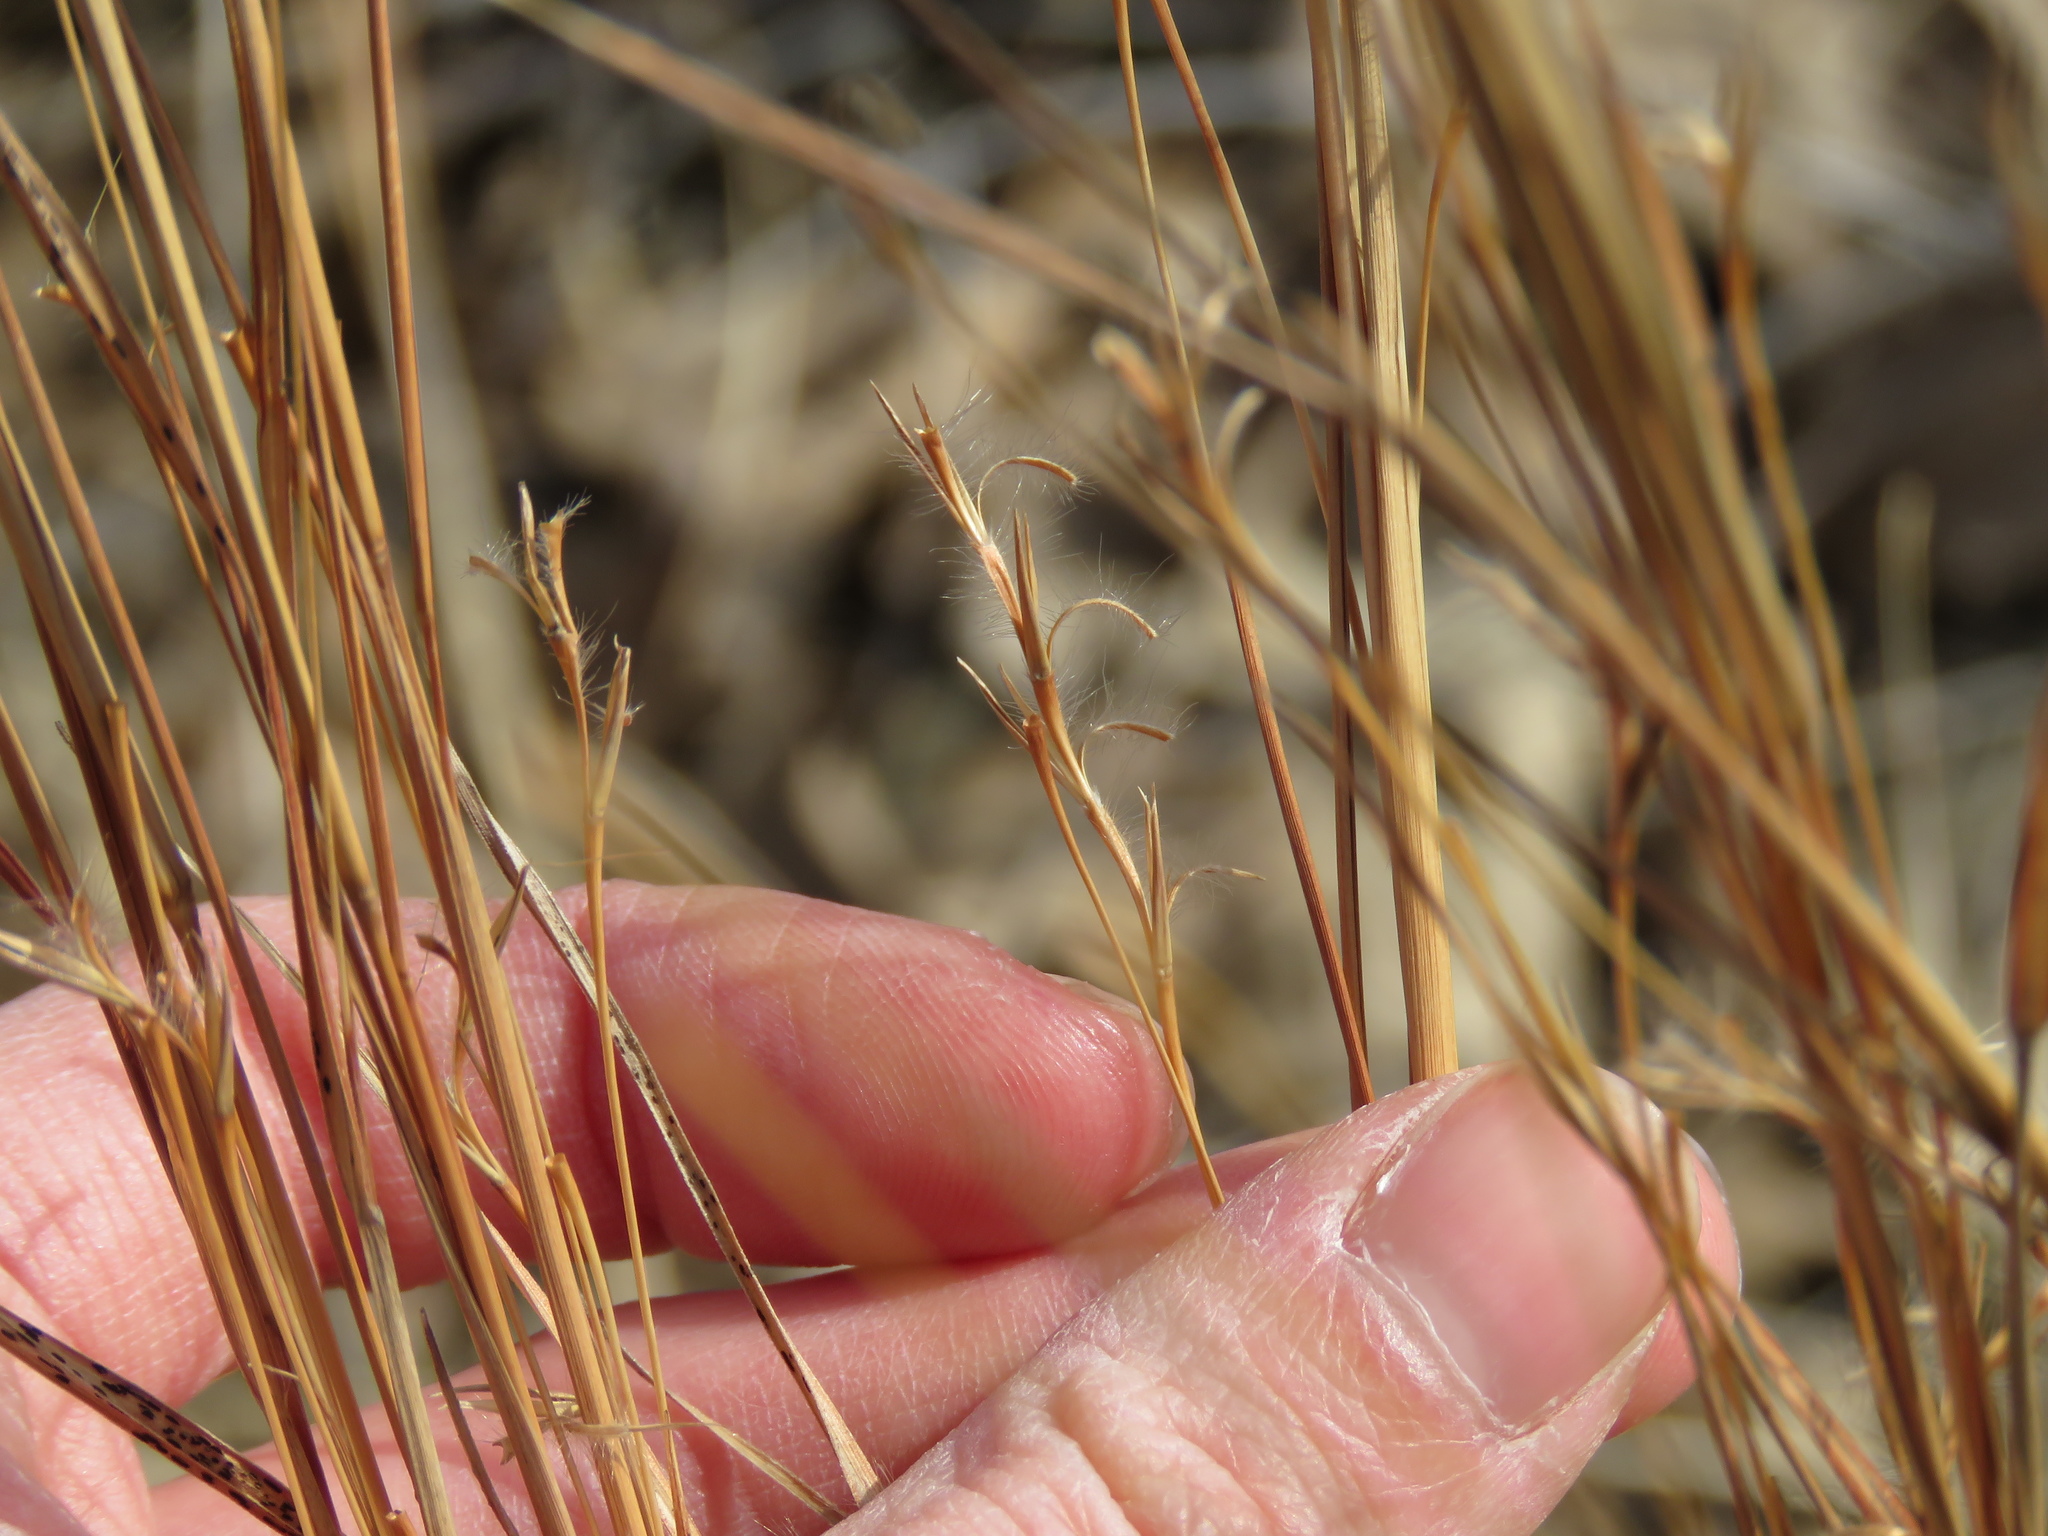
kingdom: Plantae
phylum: Tracheophyta
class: Liliopsida
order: Poales
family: Poaceae
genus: Schizachyrium
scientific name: Schizachyrium scoparium
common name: Little bluestem
